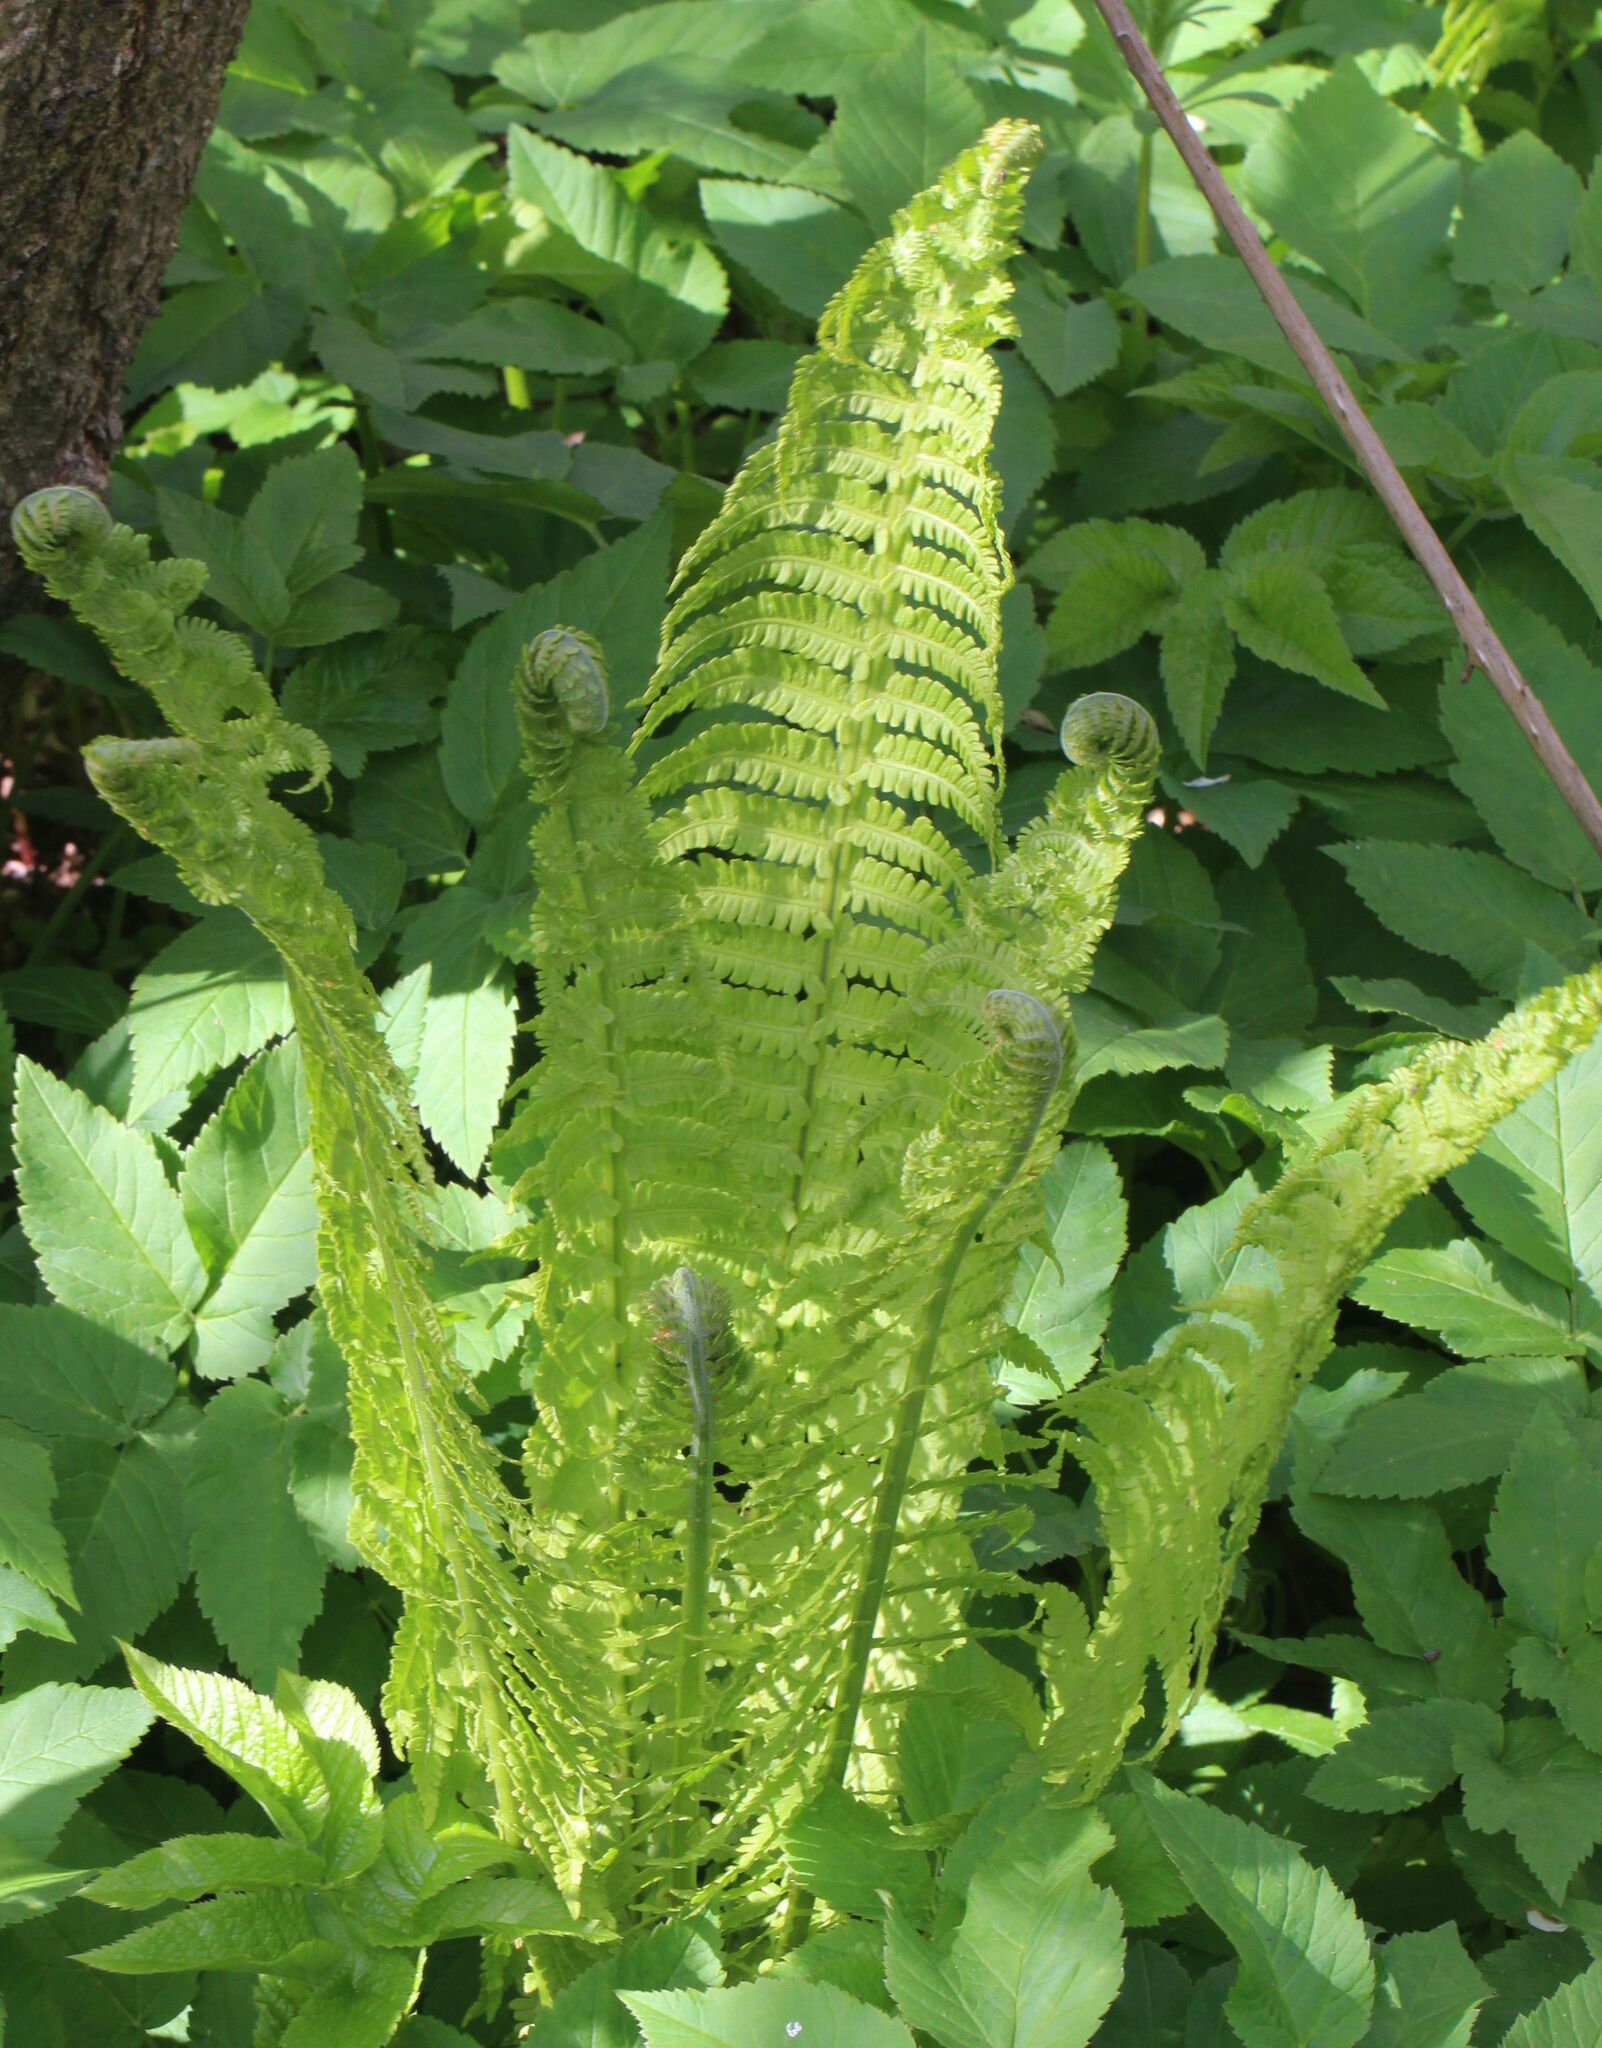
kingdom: Plantae
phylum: Tracheophyta
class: Polypodiopsida
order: Polypodiales
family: Onocleaceae
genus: Matteuccia
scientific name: Matteuccia struthiopteris
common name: Ostrich fern
